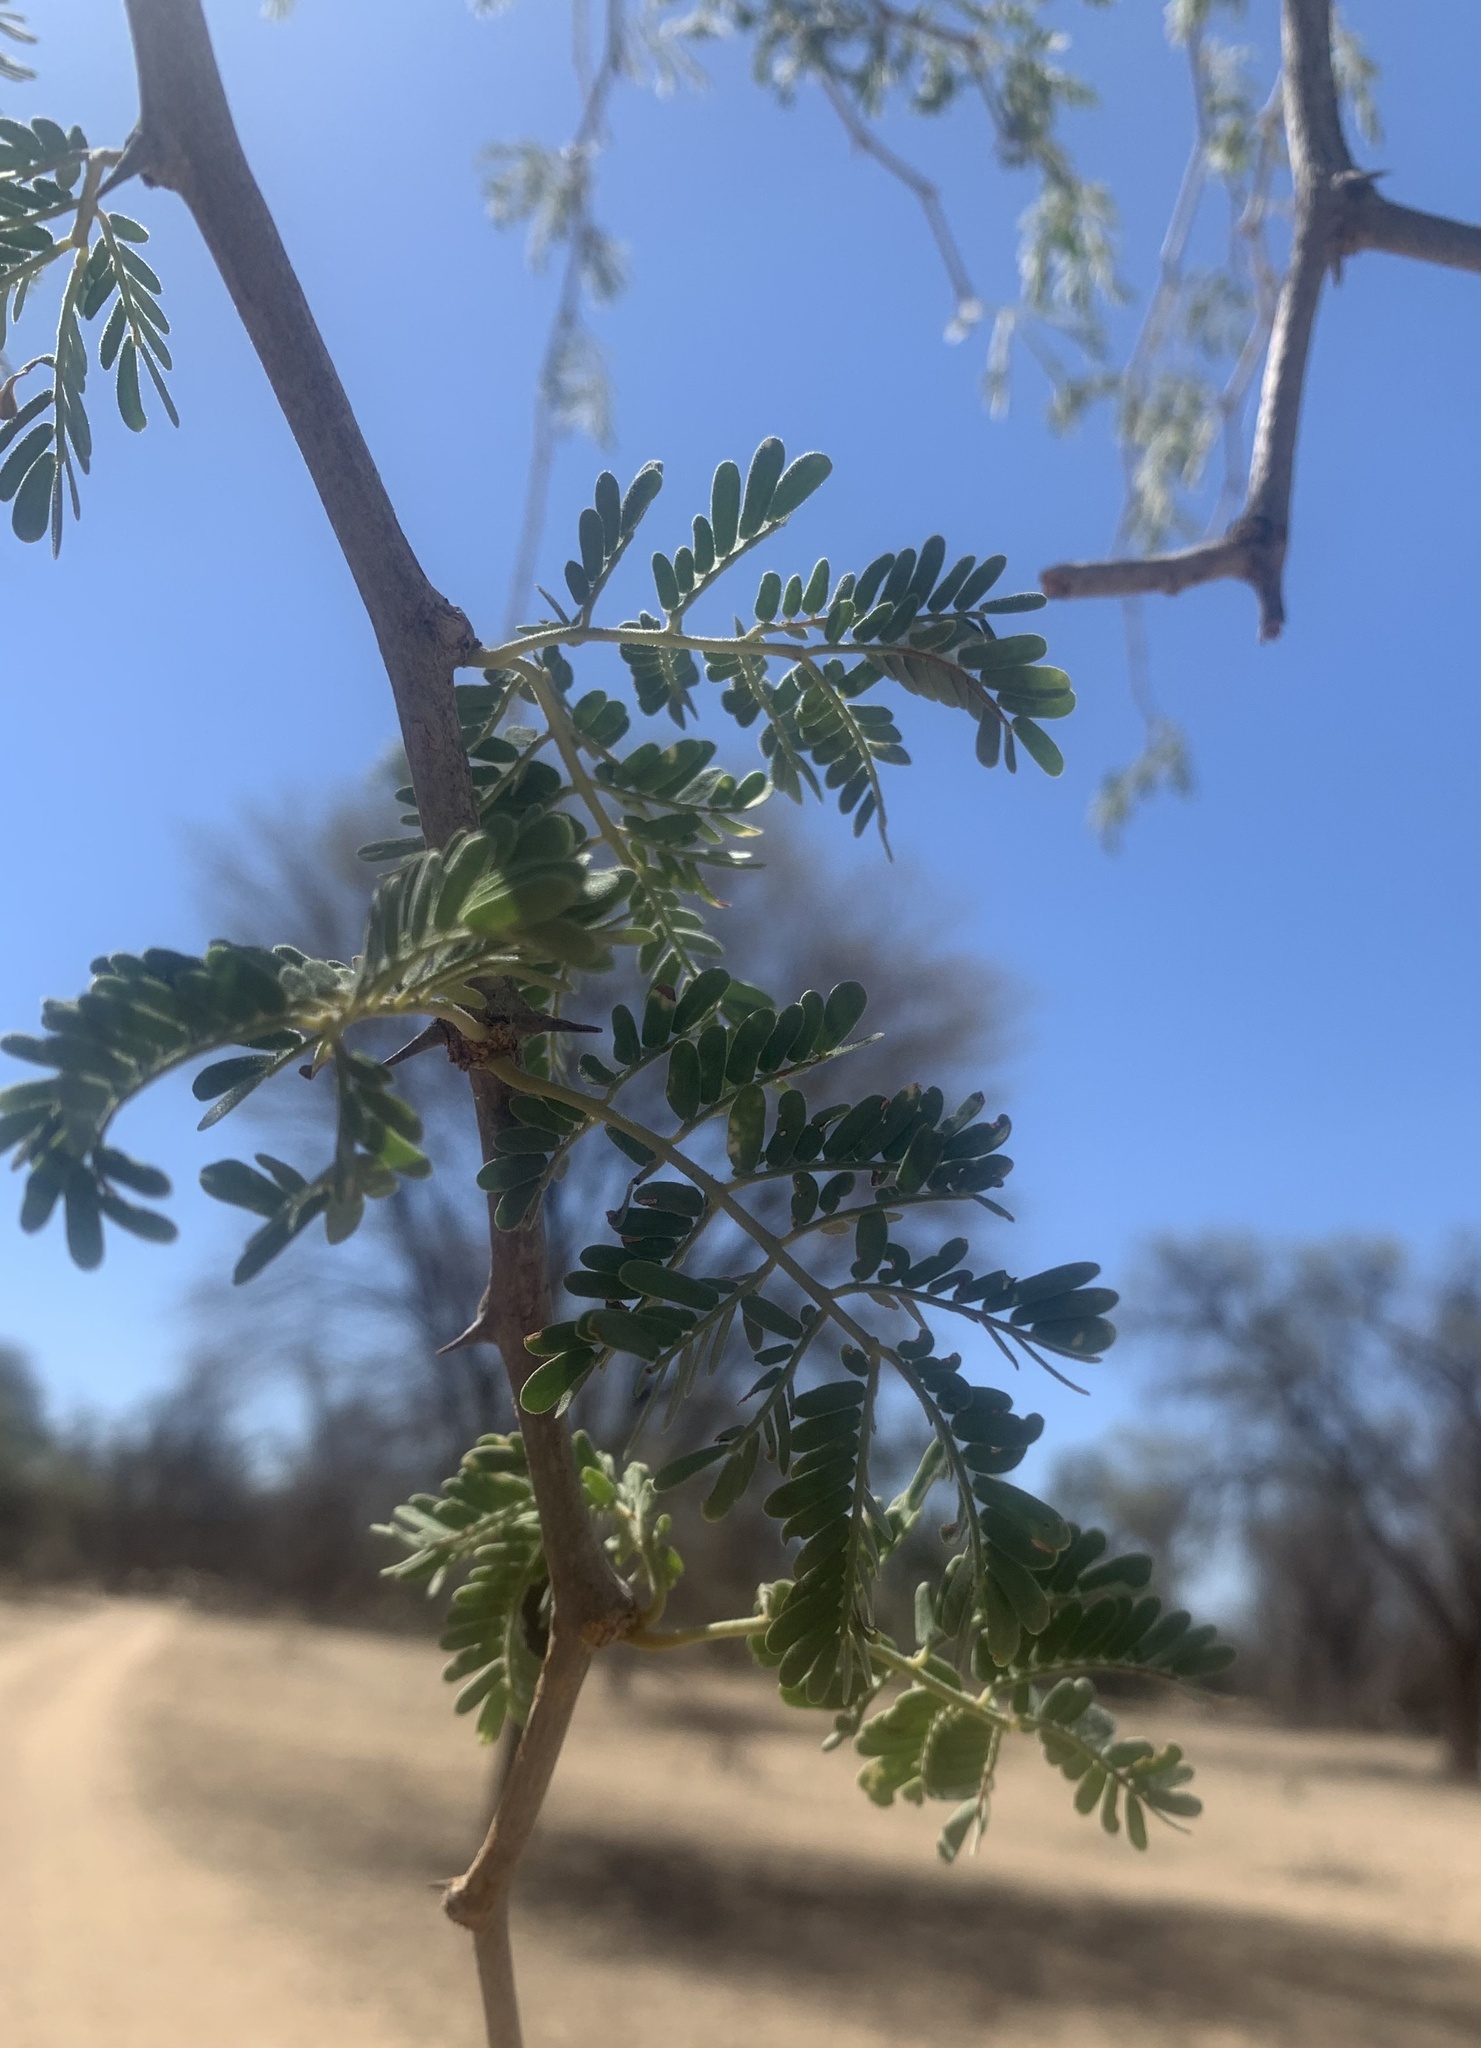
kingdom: Plantae
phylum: Tracheophyta
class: Magnoliopsida
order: Fabales
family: Fabaceae
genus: Faidherbia
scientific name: Faidherbia albida
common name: Anatree
